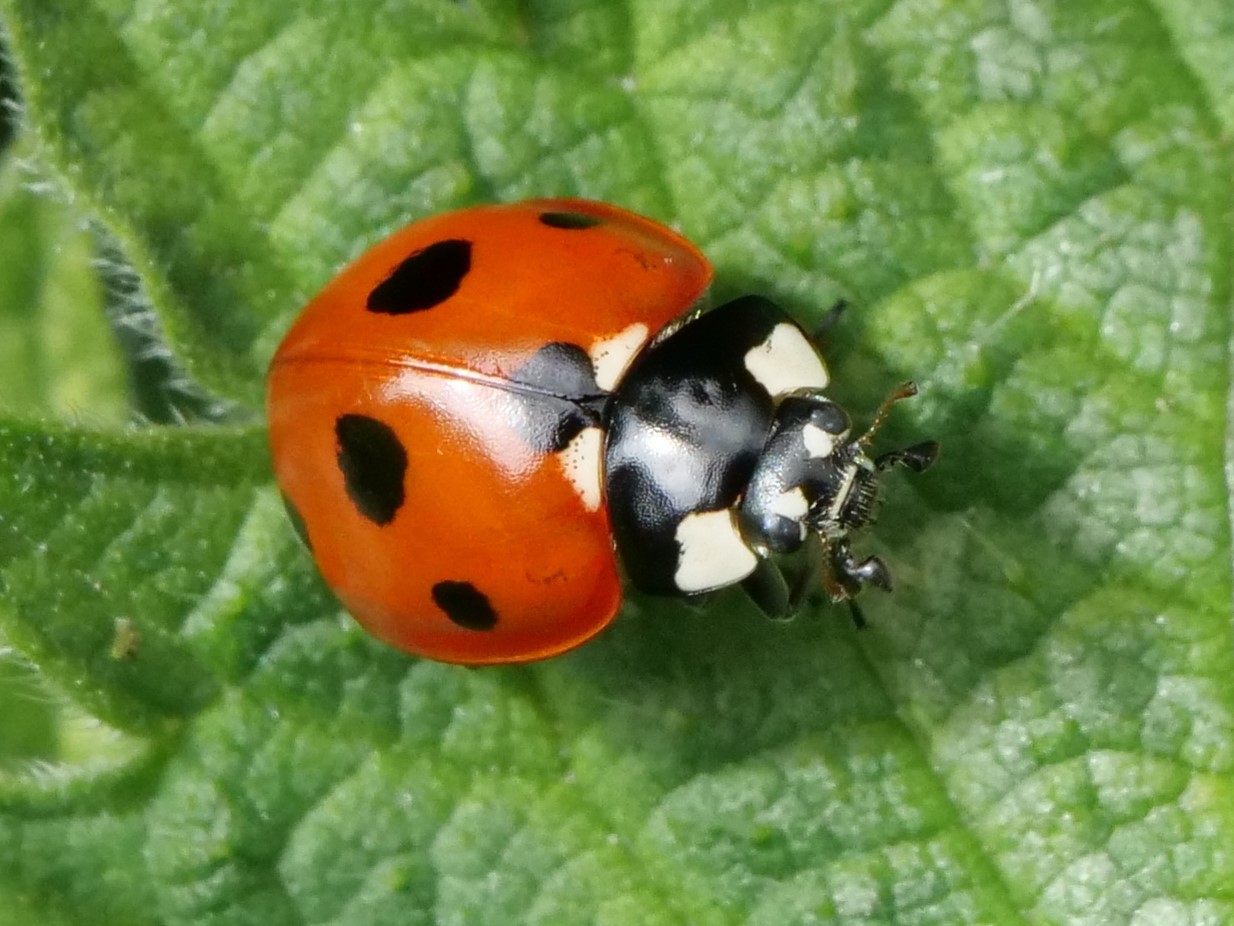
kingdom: Animalia
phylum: Arthropoda
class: Insecta
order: Coleoptera
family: Coccinellidae
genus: Coccinella
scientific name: Coccinella septempunctata
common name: Sevenspotted lady beetle
